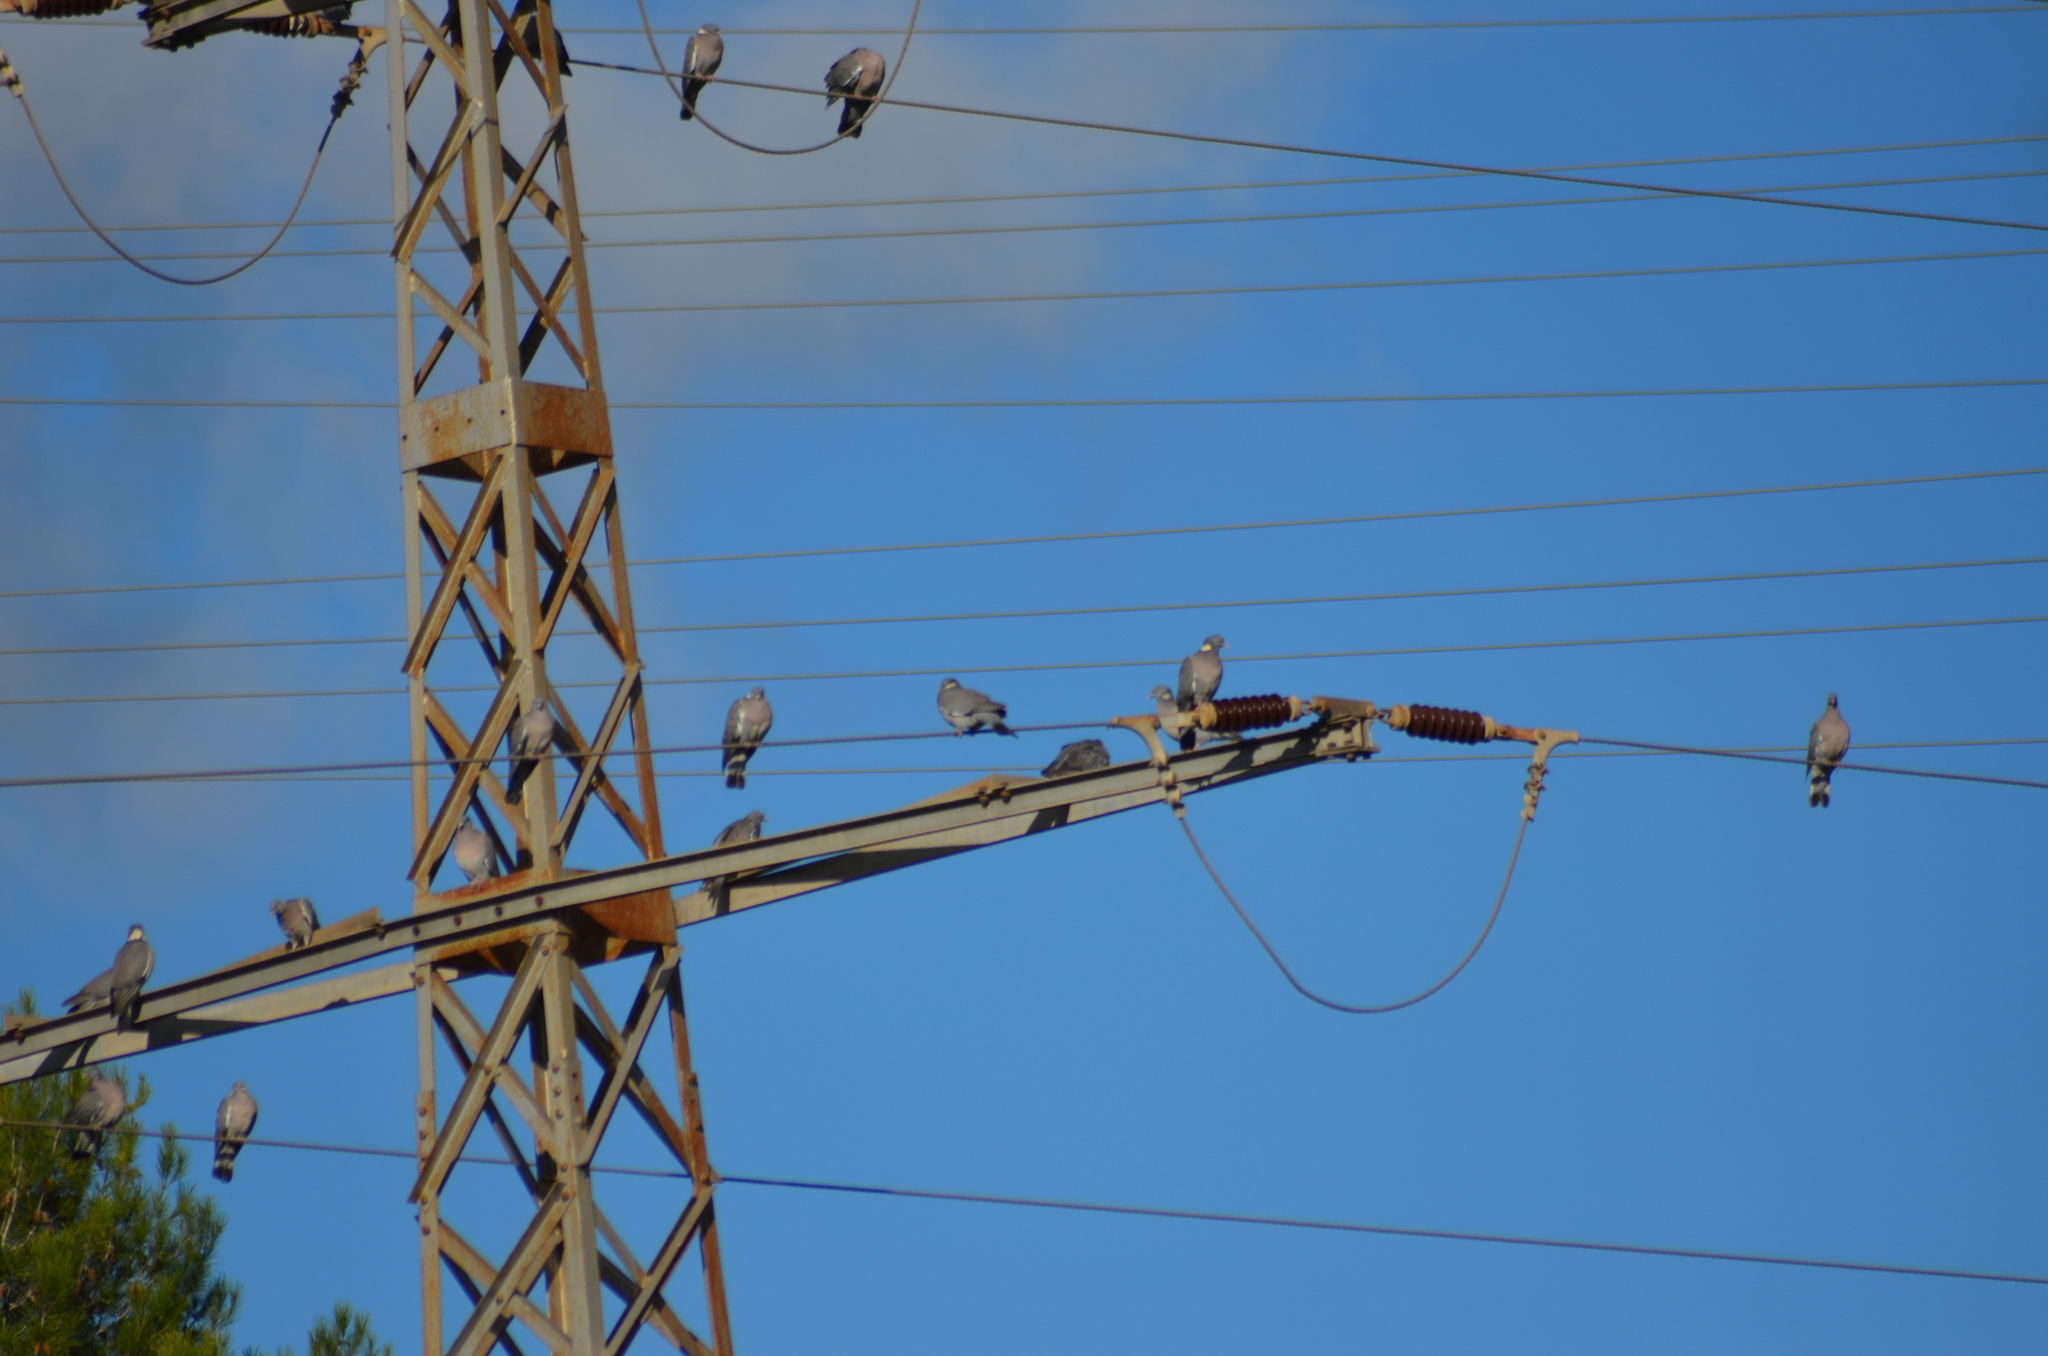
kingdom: Animalia
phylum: Chordata
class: Aves
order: Columbiformes
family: Columbidae
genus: Columba
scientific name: Columba palumbus
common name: Common wood pigeon
